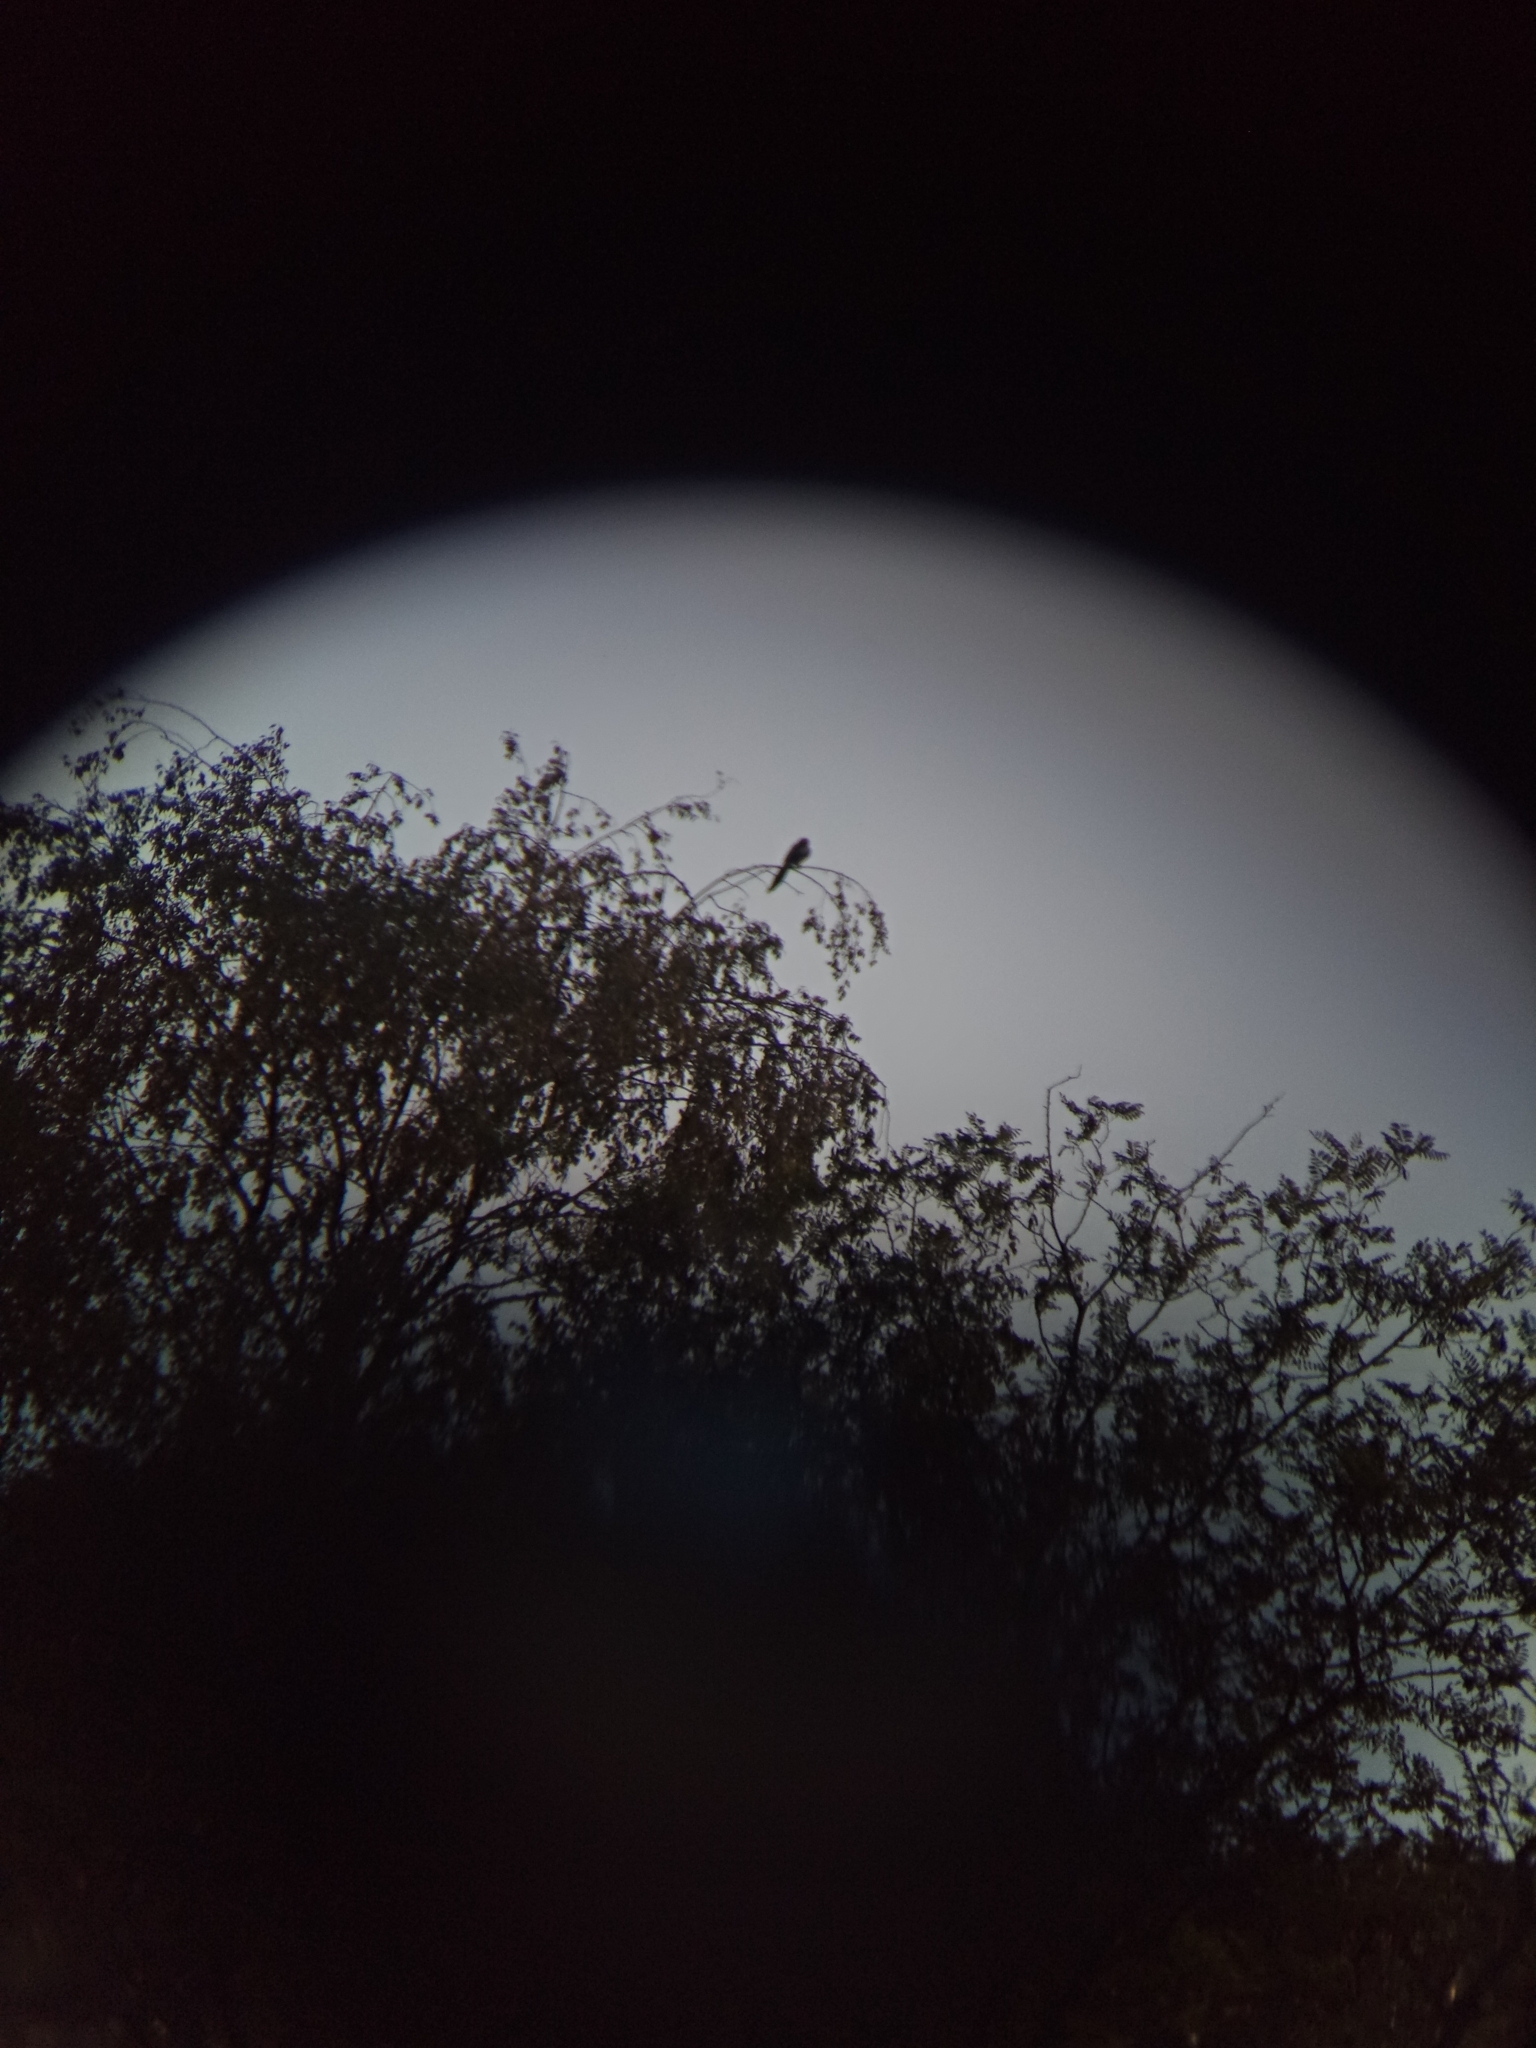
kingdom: Animalia
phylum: Chordata
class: Aves
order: Passeriformes
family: Corvidae
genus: Pica
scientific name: Pica pica
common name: Eurasian magpie
